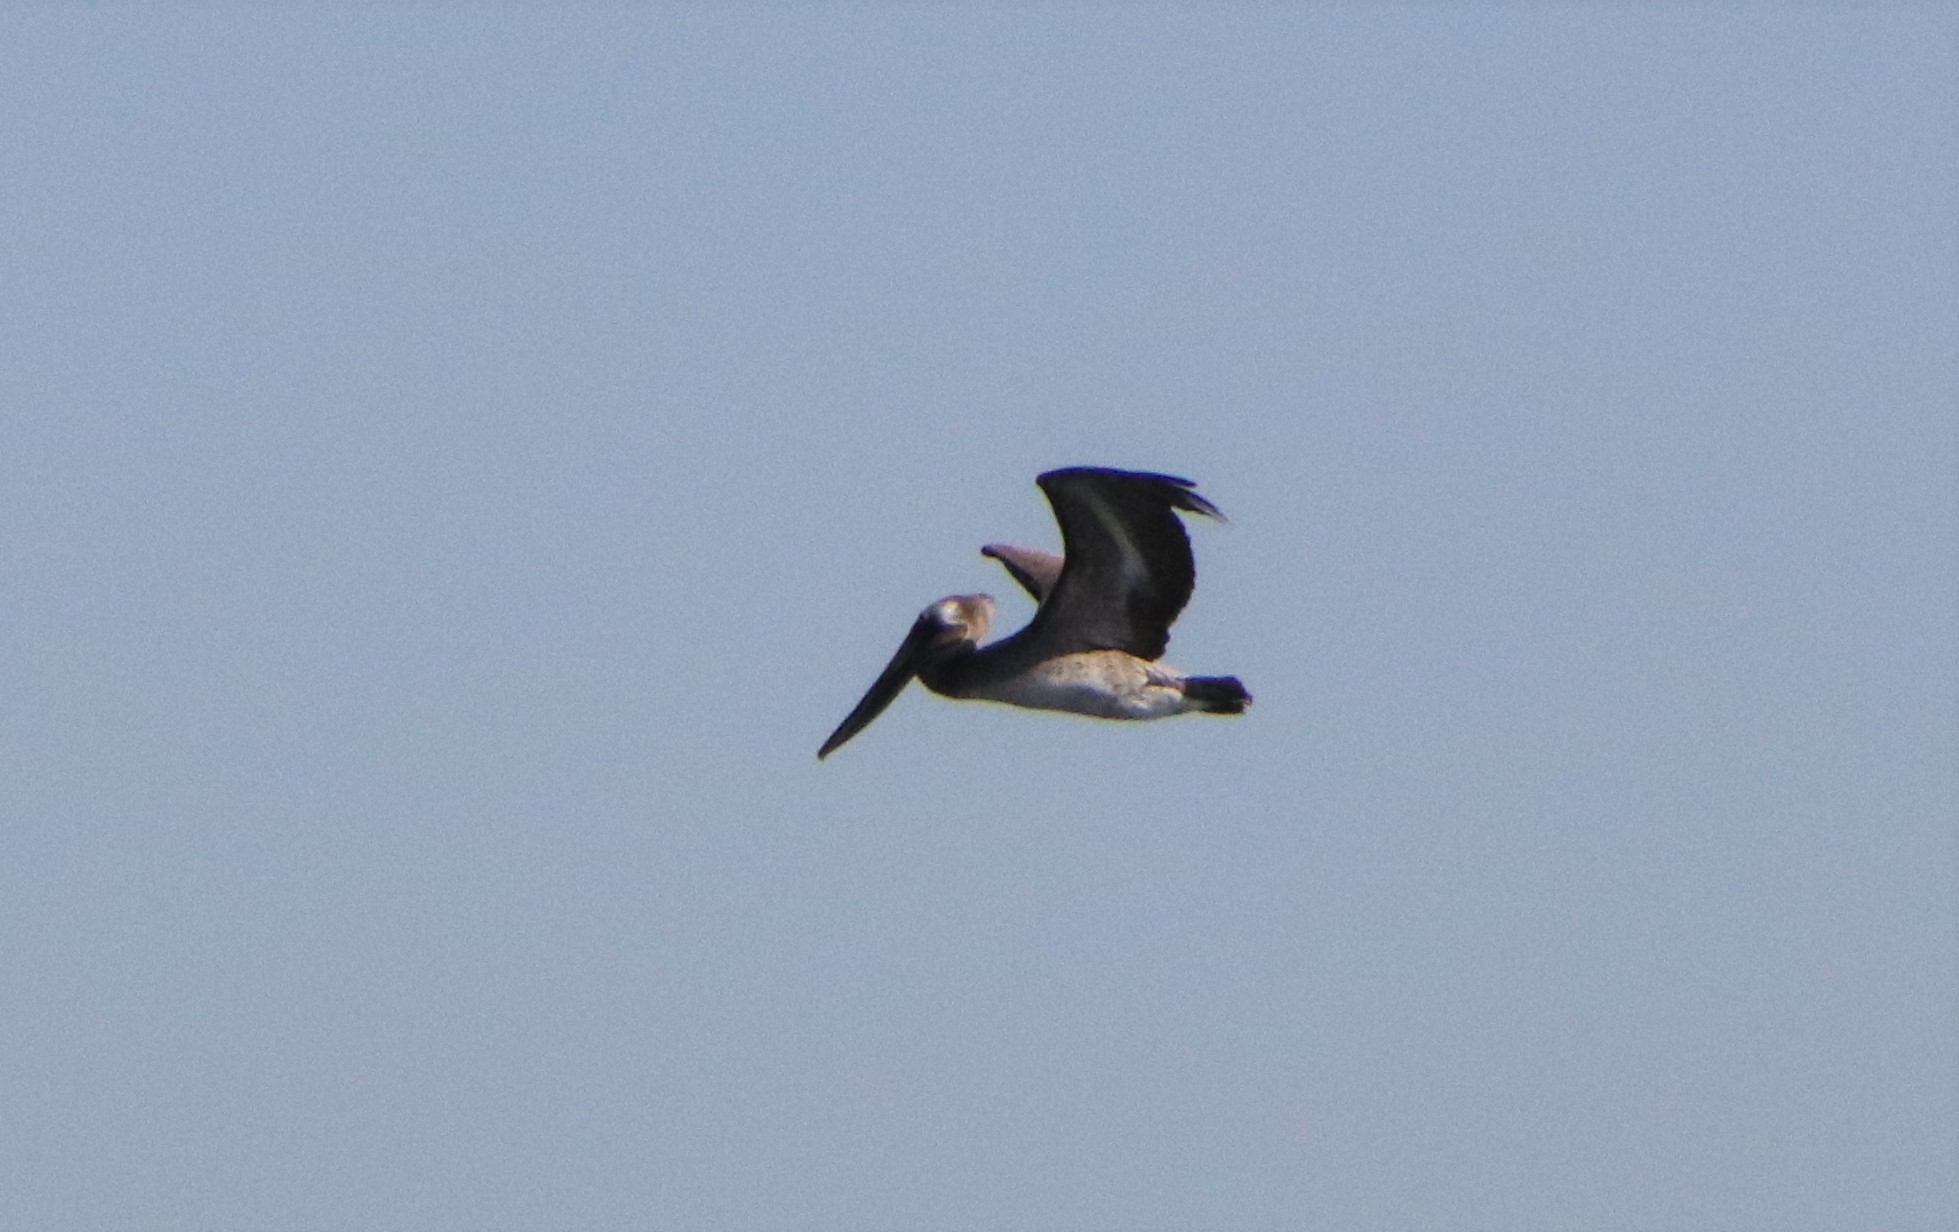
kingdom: Animalia
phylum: Chordata
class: Aves
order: Pelecaniformes
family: Pelecanidae
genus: Pelecanus
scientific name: Pelecanus occidentalis
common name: Brown pelican
